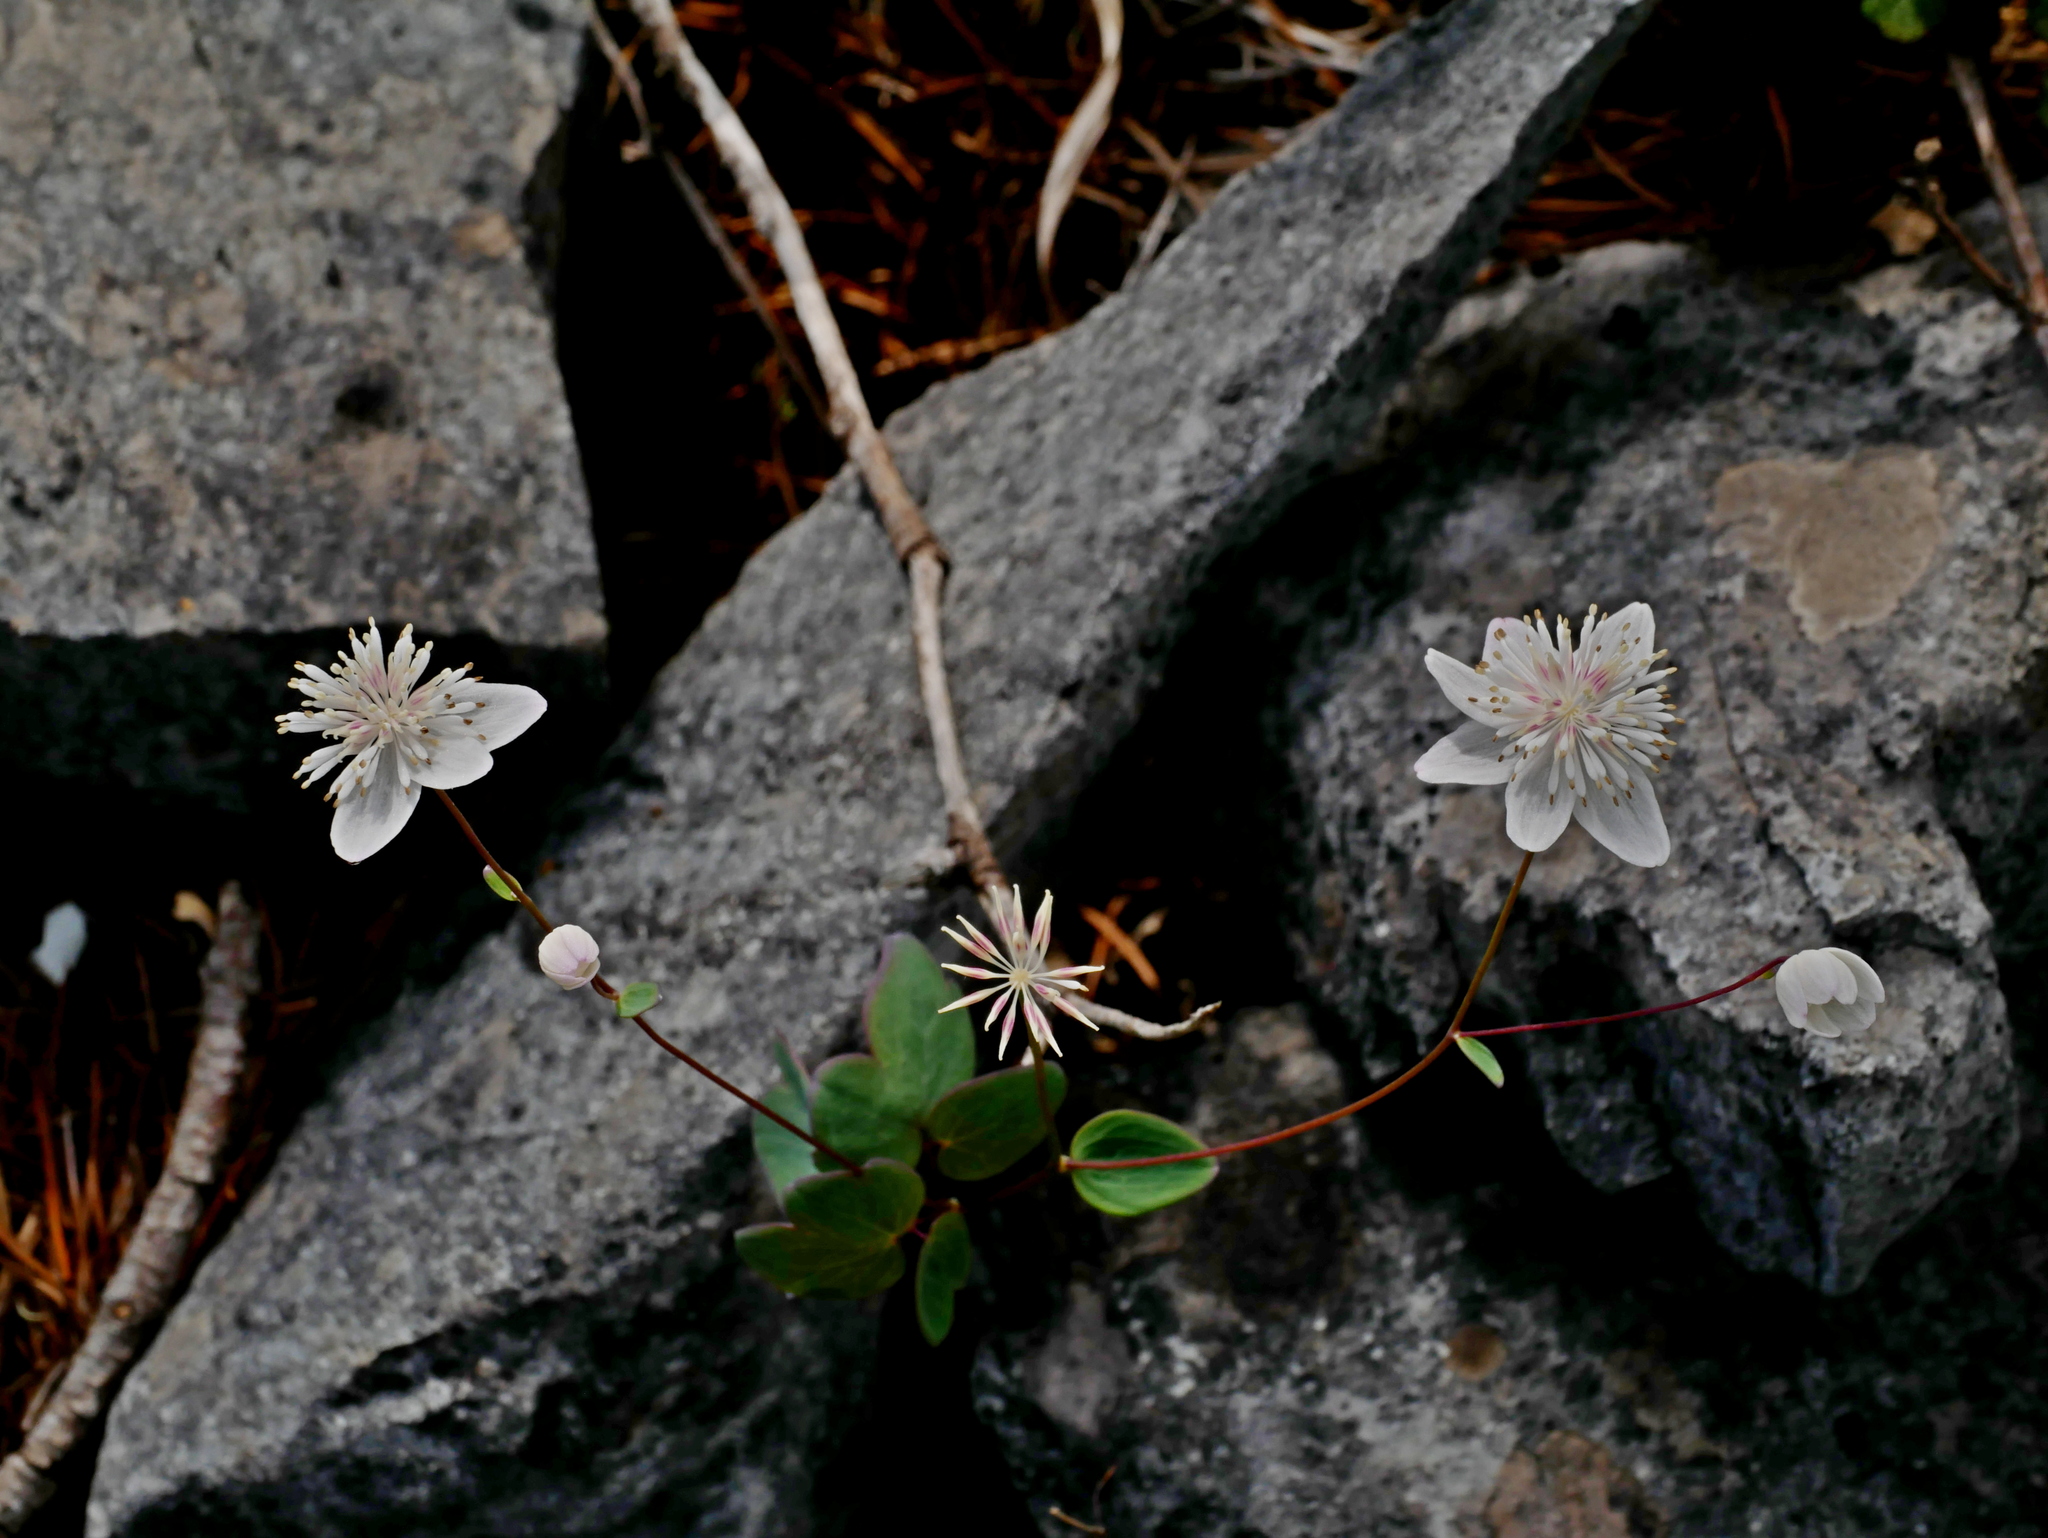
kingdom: Plantae
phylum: Tracheophyta
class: Magnoliopsida
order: Ranunculales
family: Ranunculaceae
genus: Thalictrum
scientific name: Thalictrum urbaini
